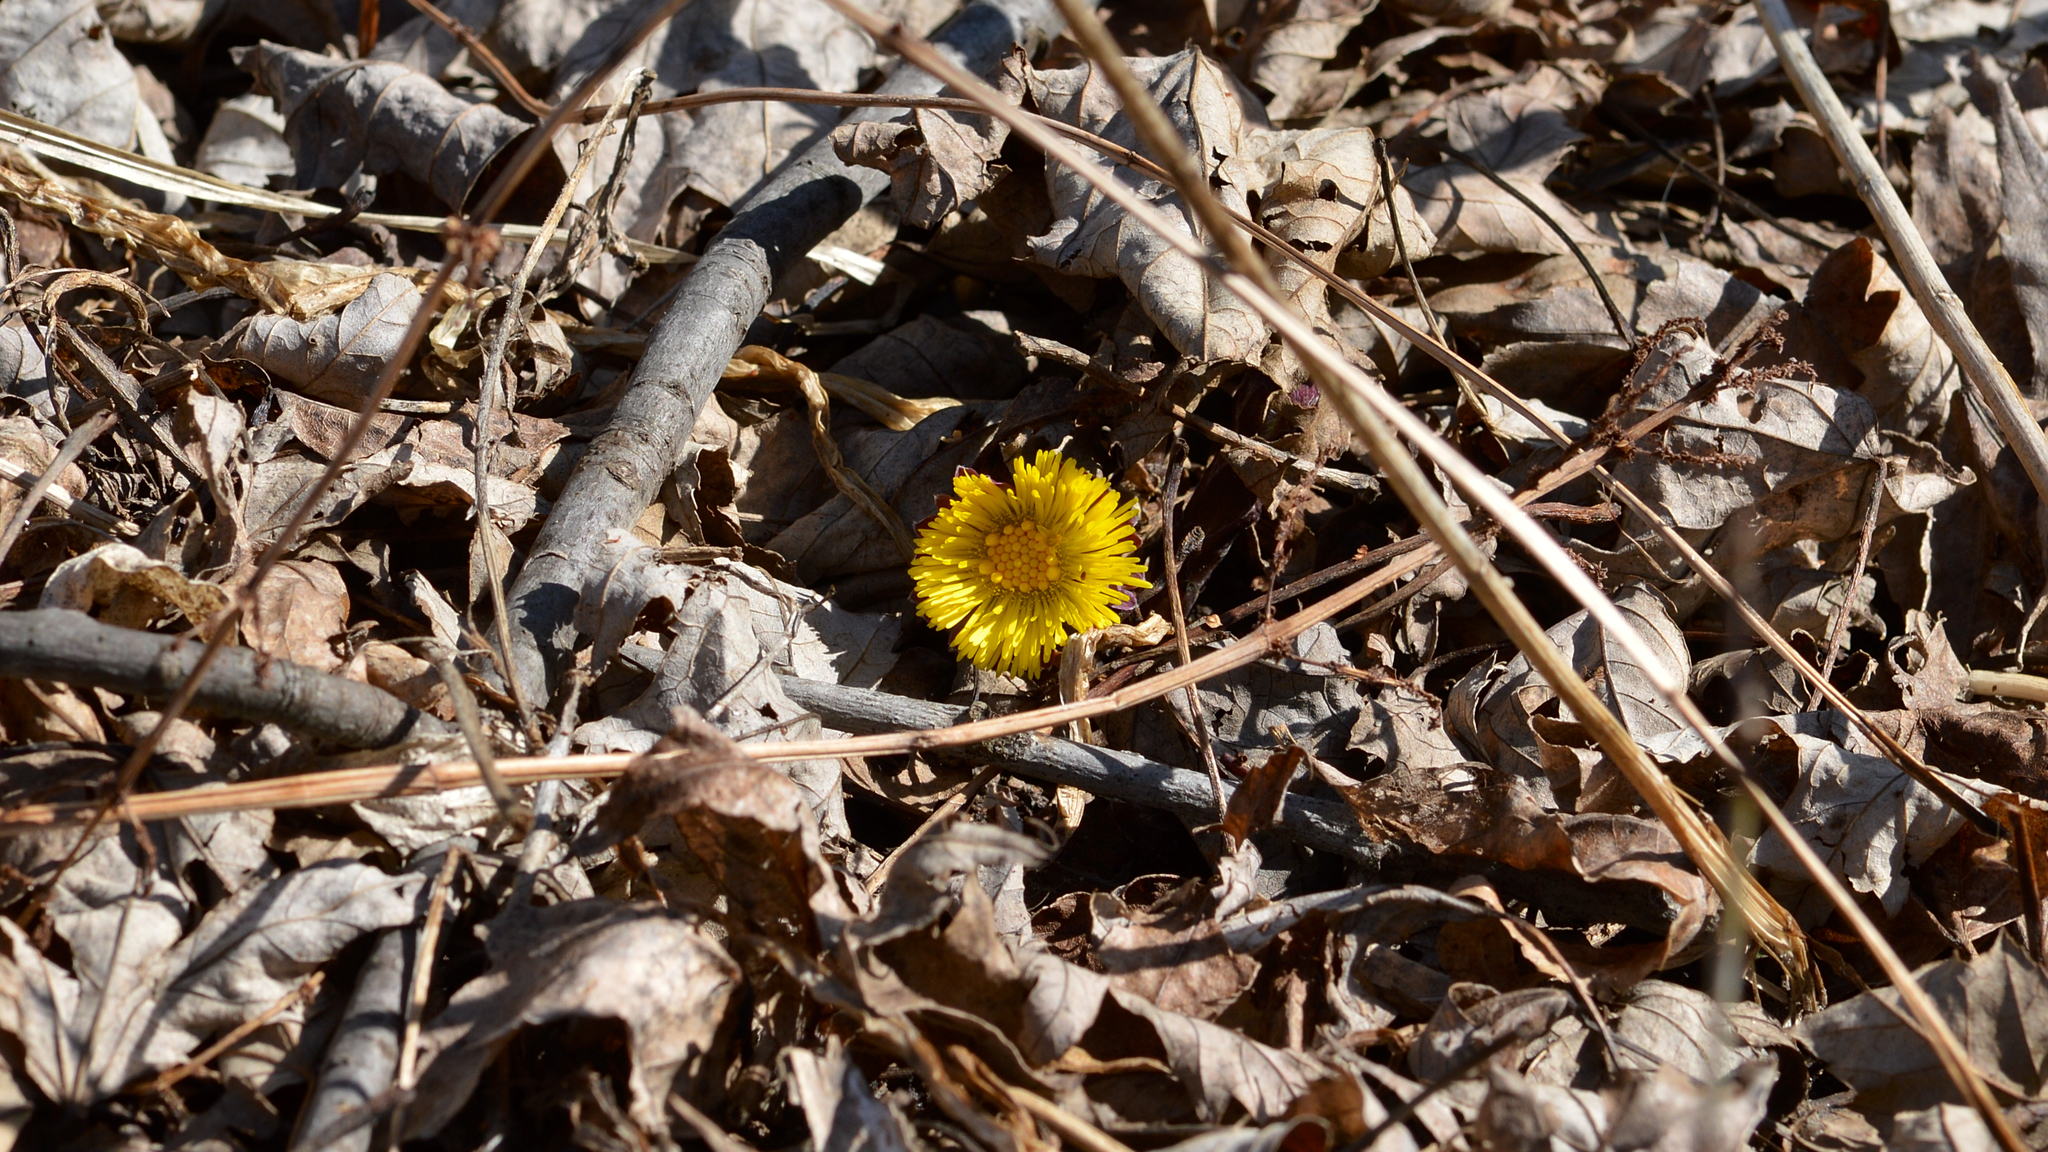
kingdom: Plantae
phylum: Tracheophyta
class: Magnoliopsida
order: Asterales
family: Asteraceae
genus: Tussilago
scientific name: Tussilago farfara
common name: Coltsfoot
